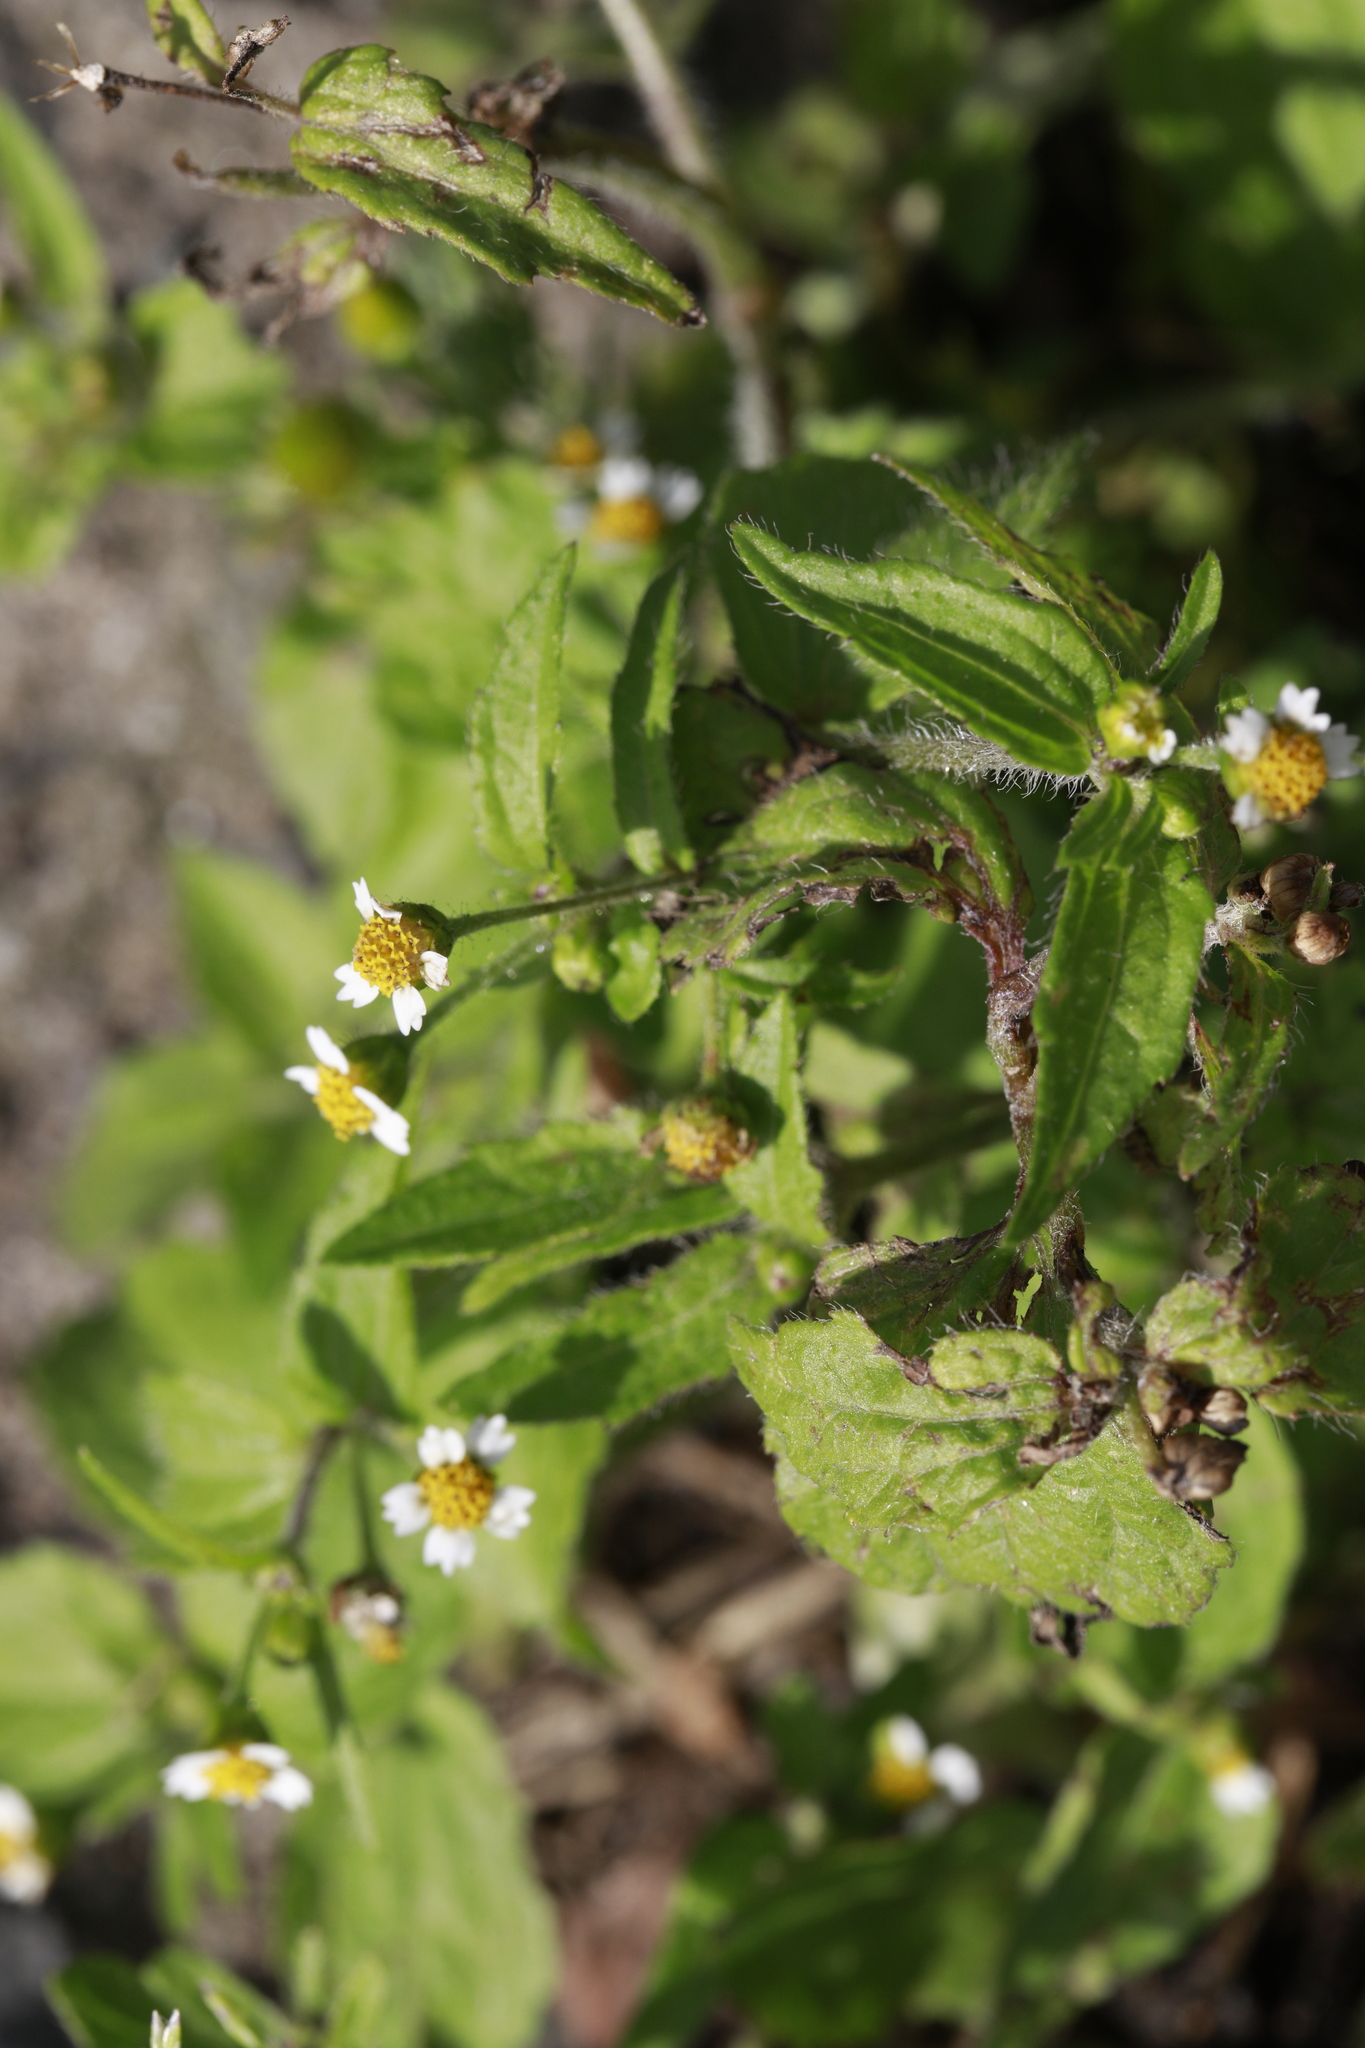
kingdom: Plantae
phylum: Tracheophyta
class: Magnoliopsida
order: Asterales
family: Asteraceae
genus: Galinsoga
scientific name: Galinsoga quadriradiata
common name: Shaggy soldier
